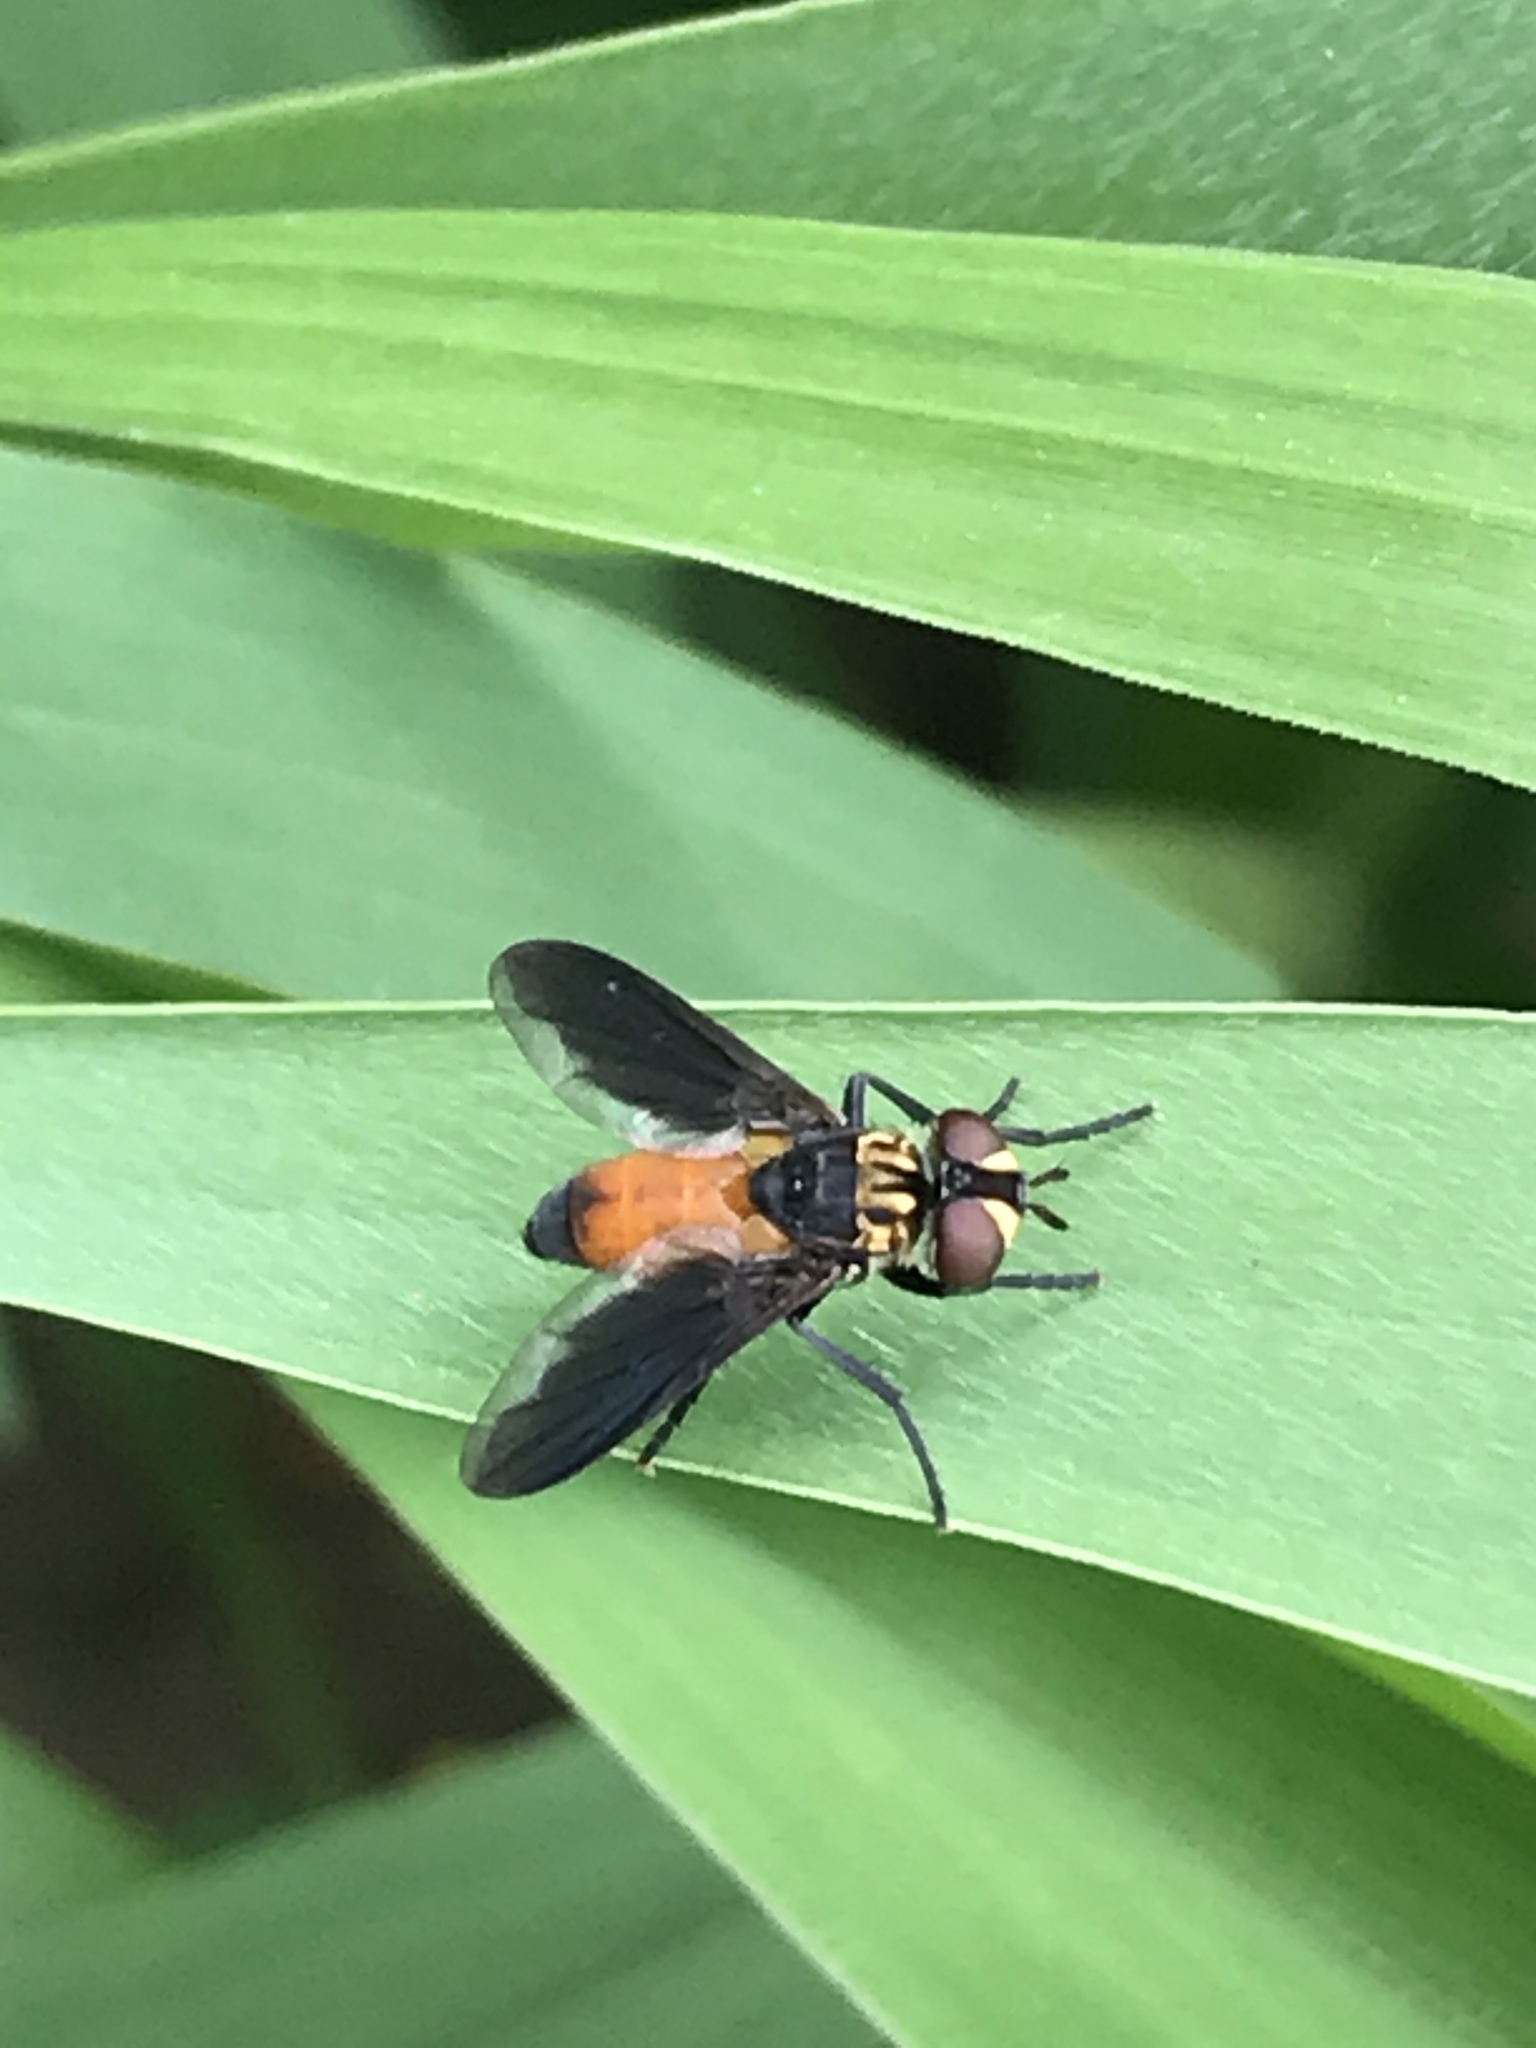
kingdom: Animalia
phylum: Arthropoda
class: Insecta
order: Diptera
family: Tachinidae
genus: Trichopoda
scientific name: Trichopoda pennipes
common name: Tachinid fly
